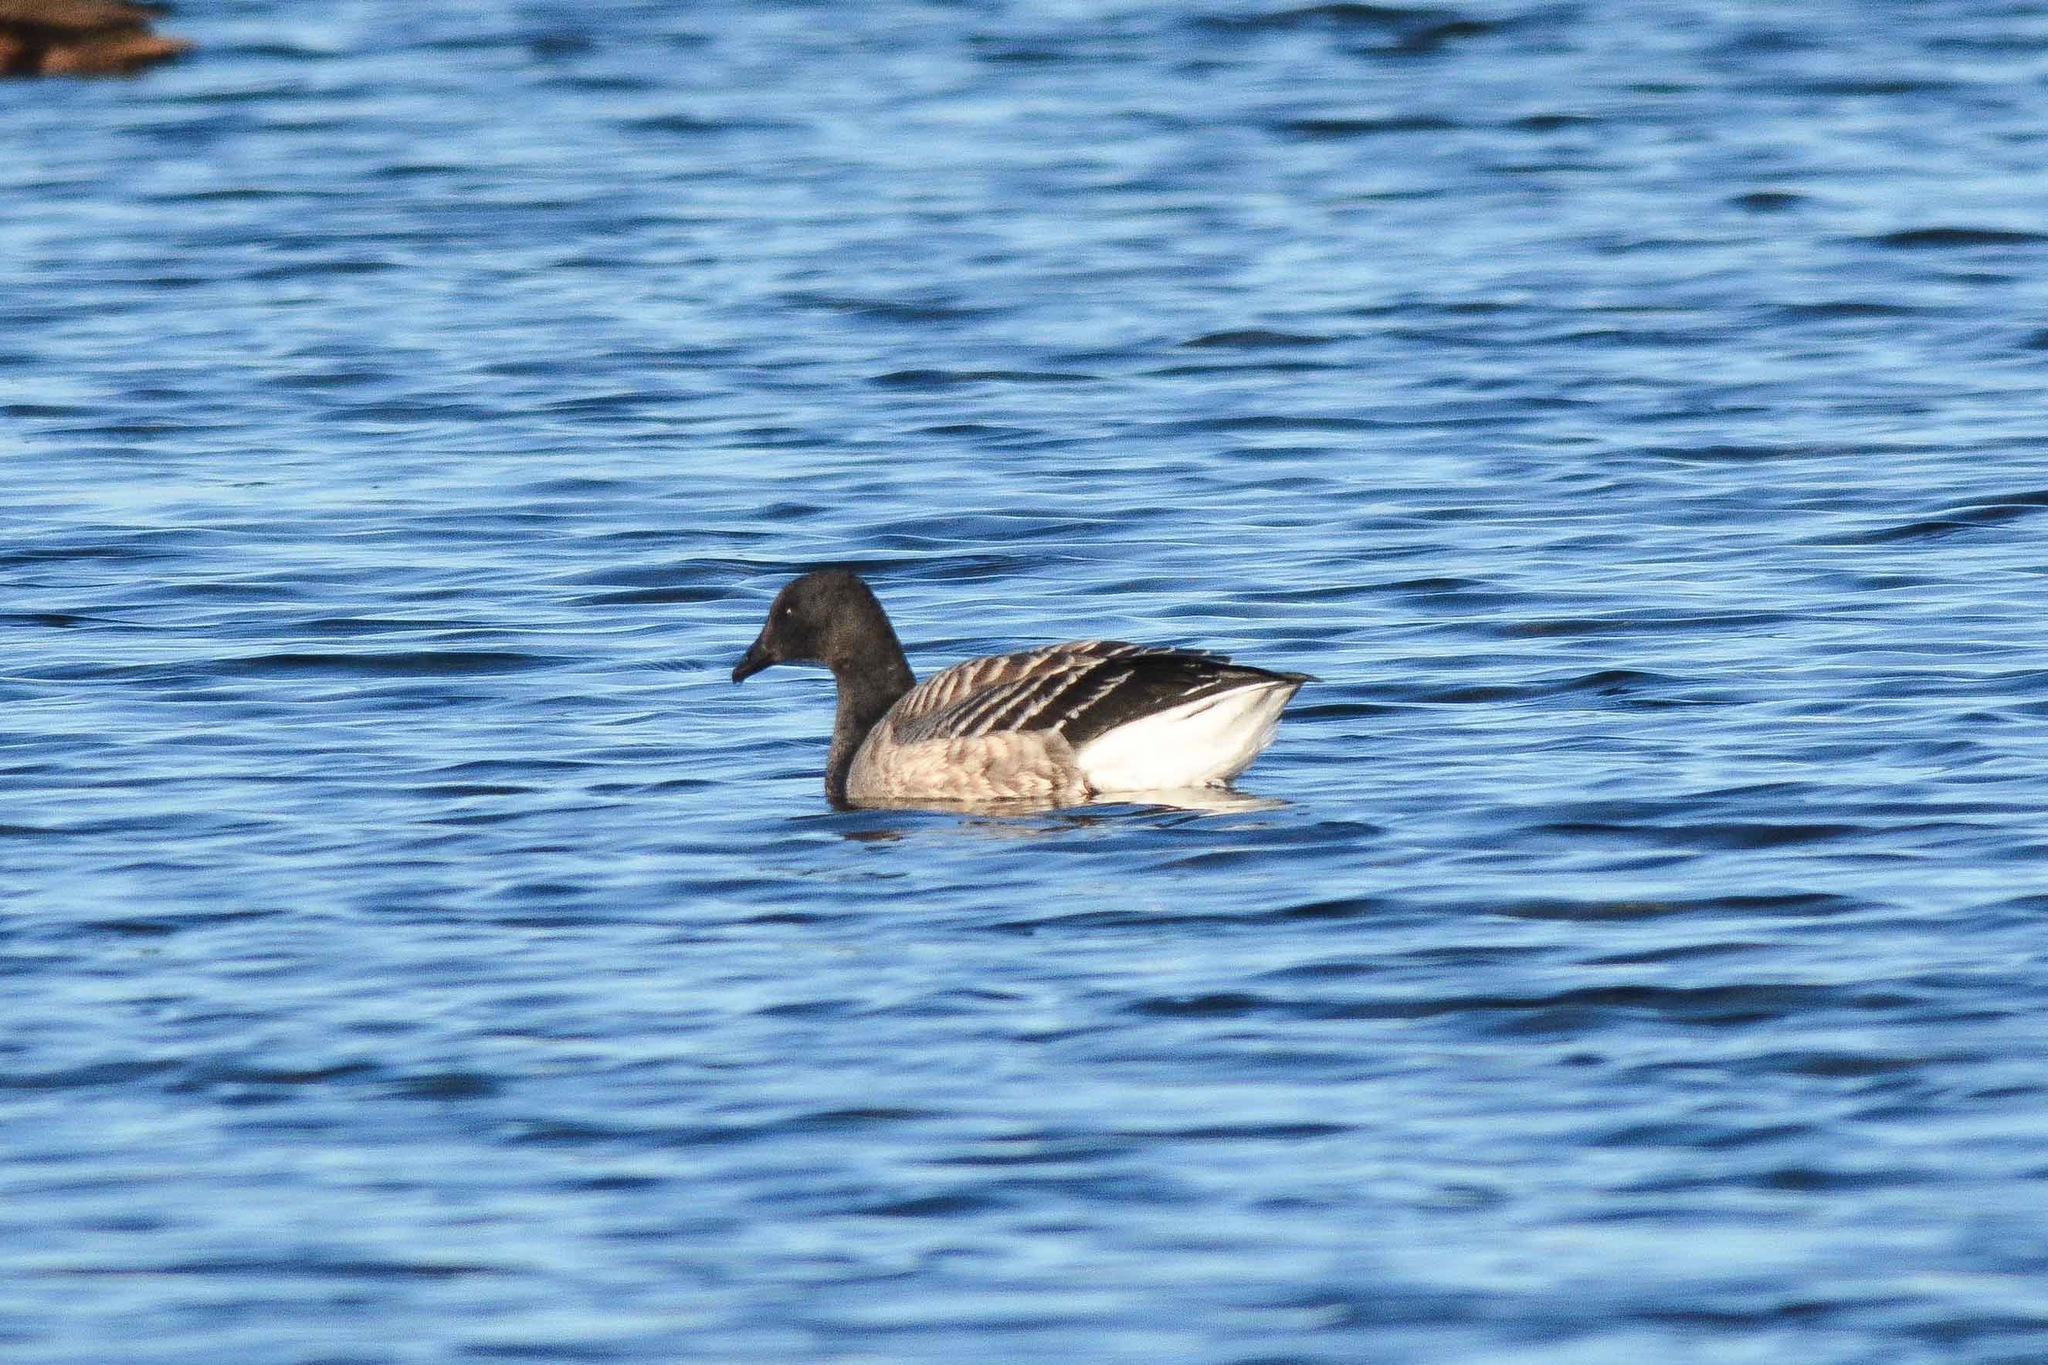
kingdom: Animalia
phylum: Chordata
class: Aves
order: Anseriformes
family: Anatidae
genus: Branta
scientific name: Branta bernicla
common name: Brant goose
